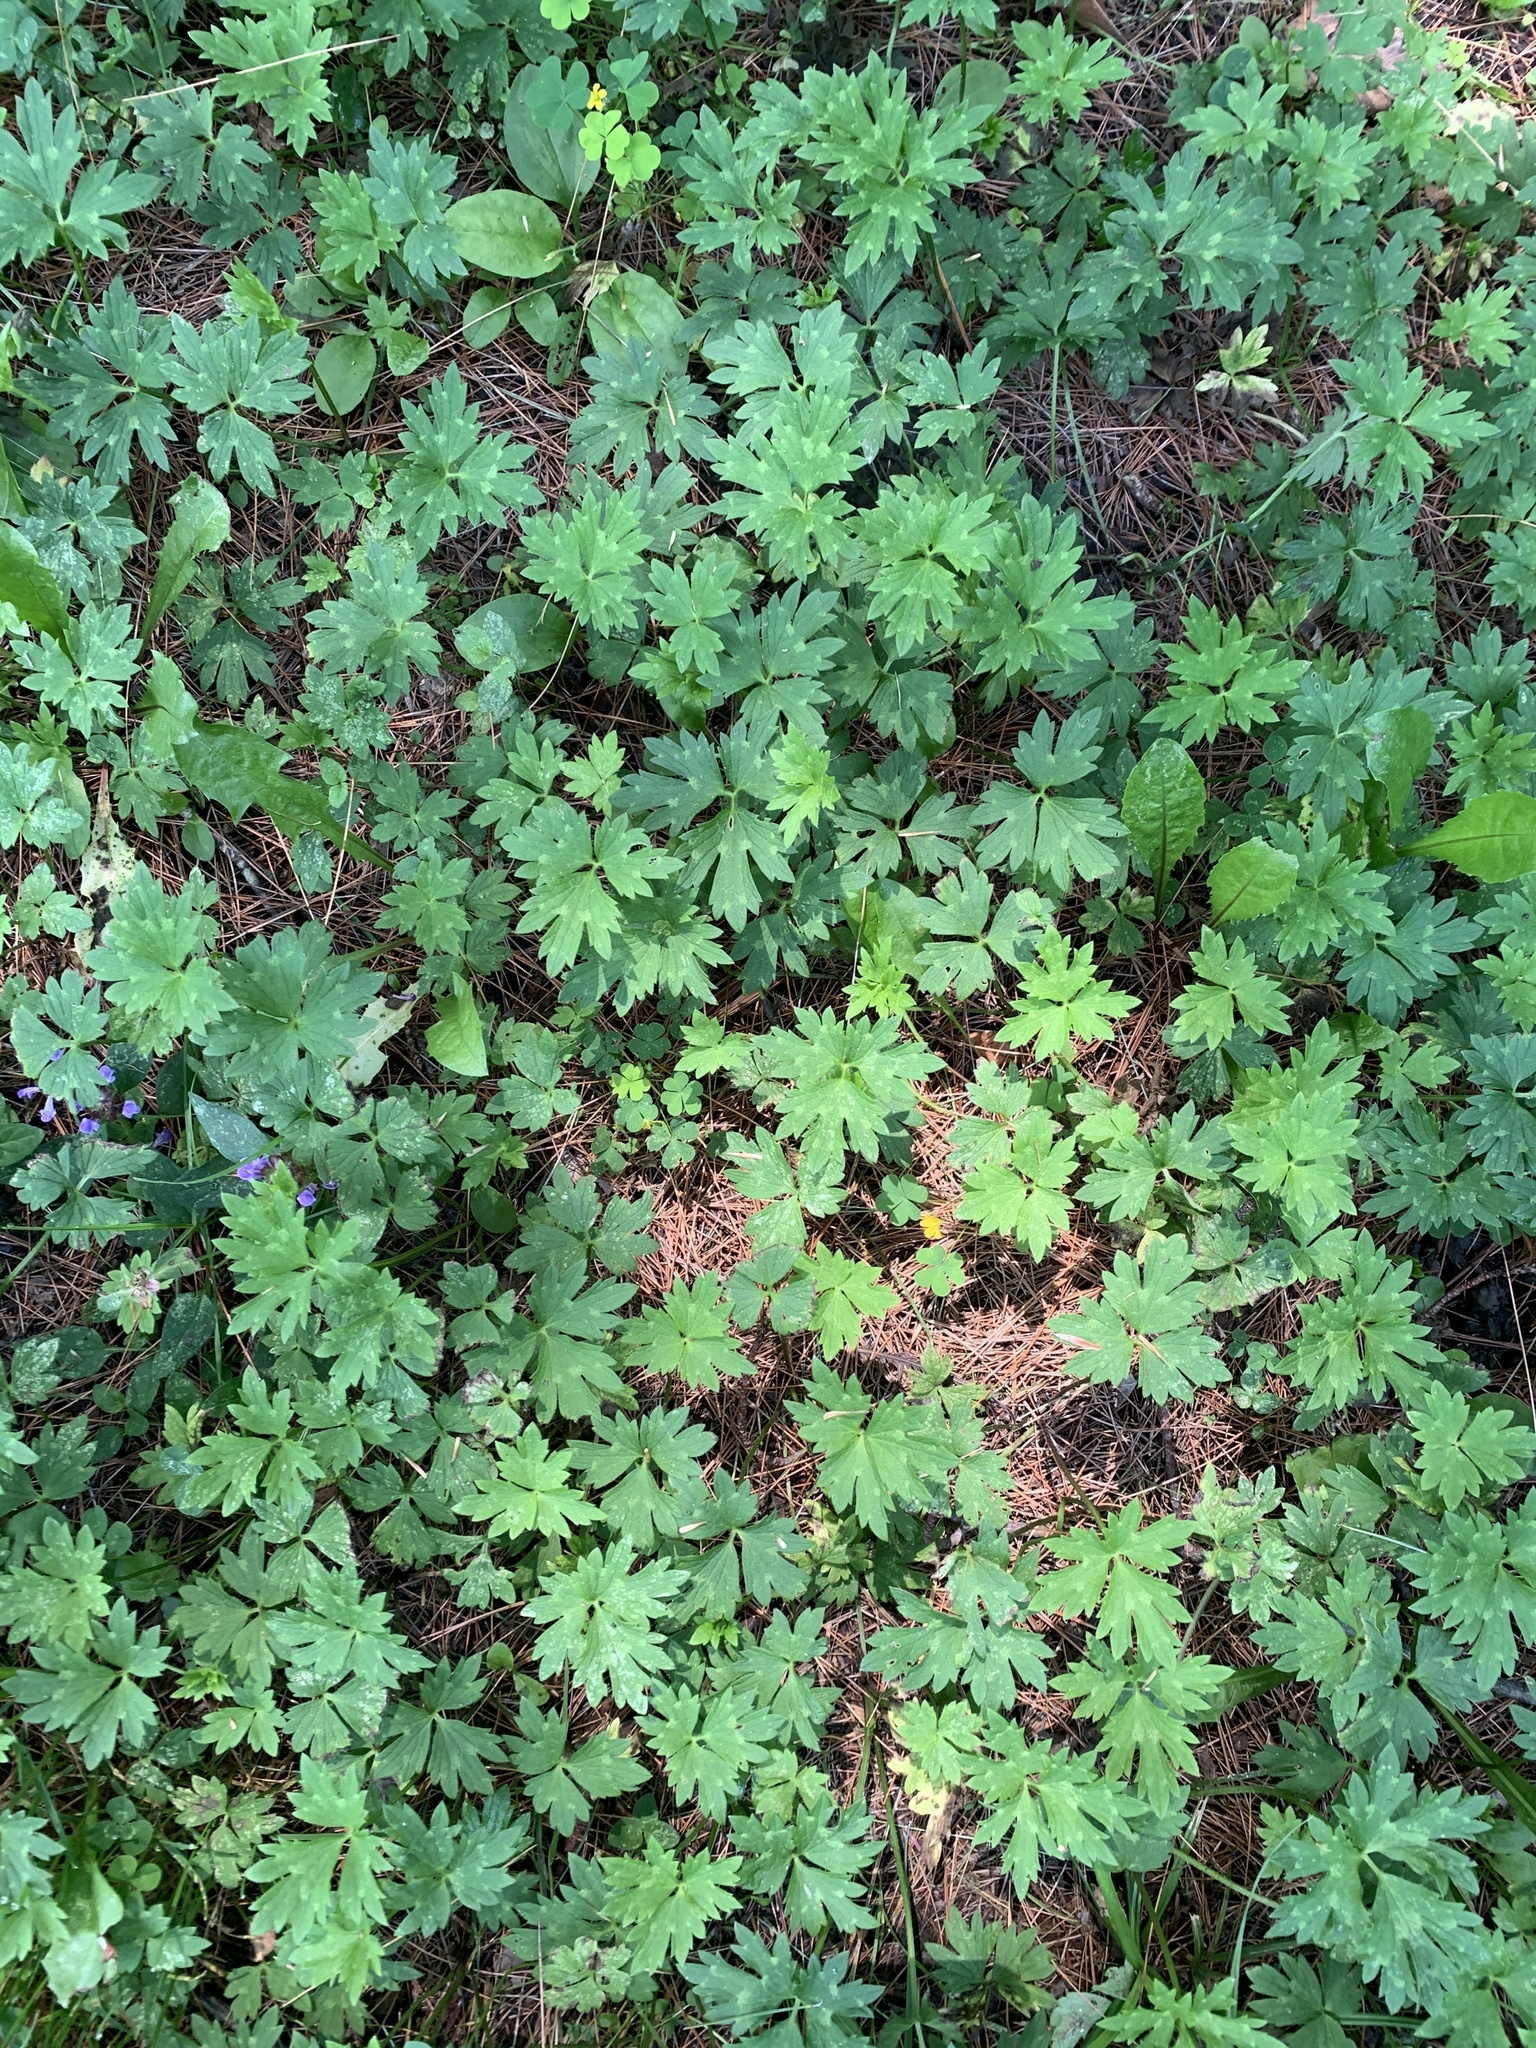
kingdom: Plantae
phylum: Tracheophyta
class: Magnoliopsida
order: Ranunculales
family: Ranunculaceae
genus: Ranunculus
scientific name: Ranunculus repens
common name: Creeping buttercup
